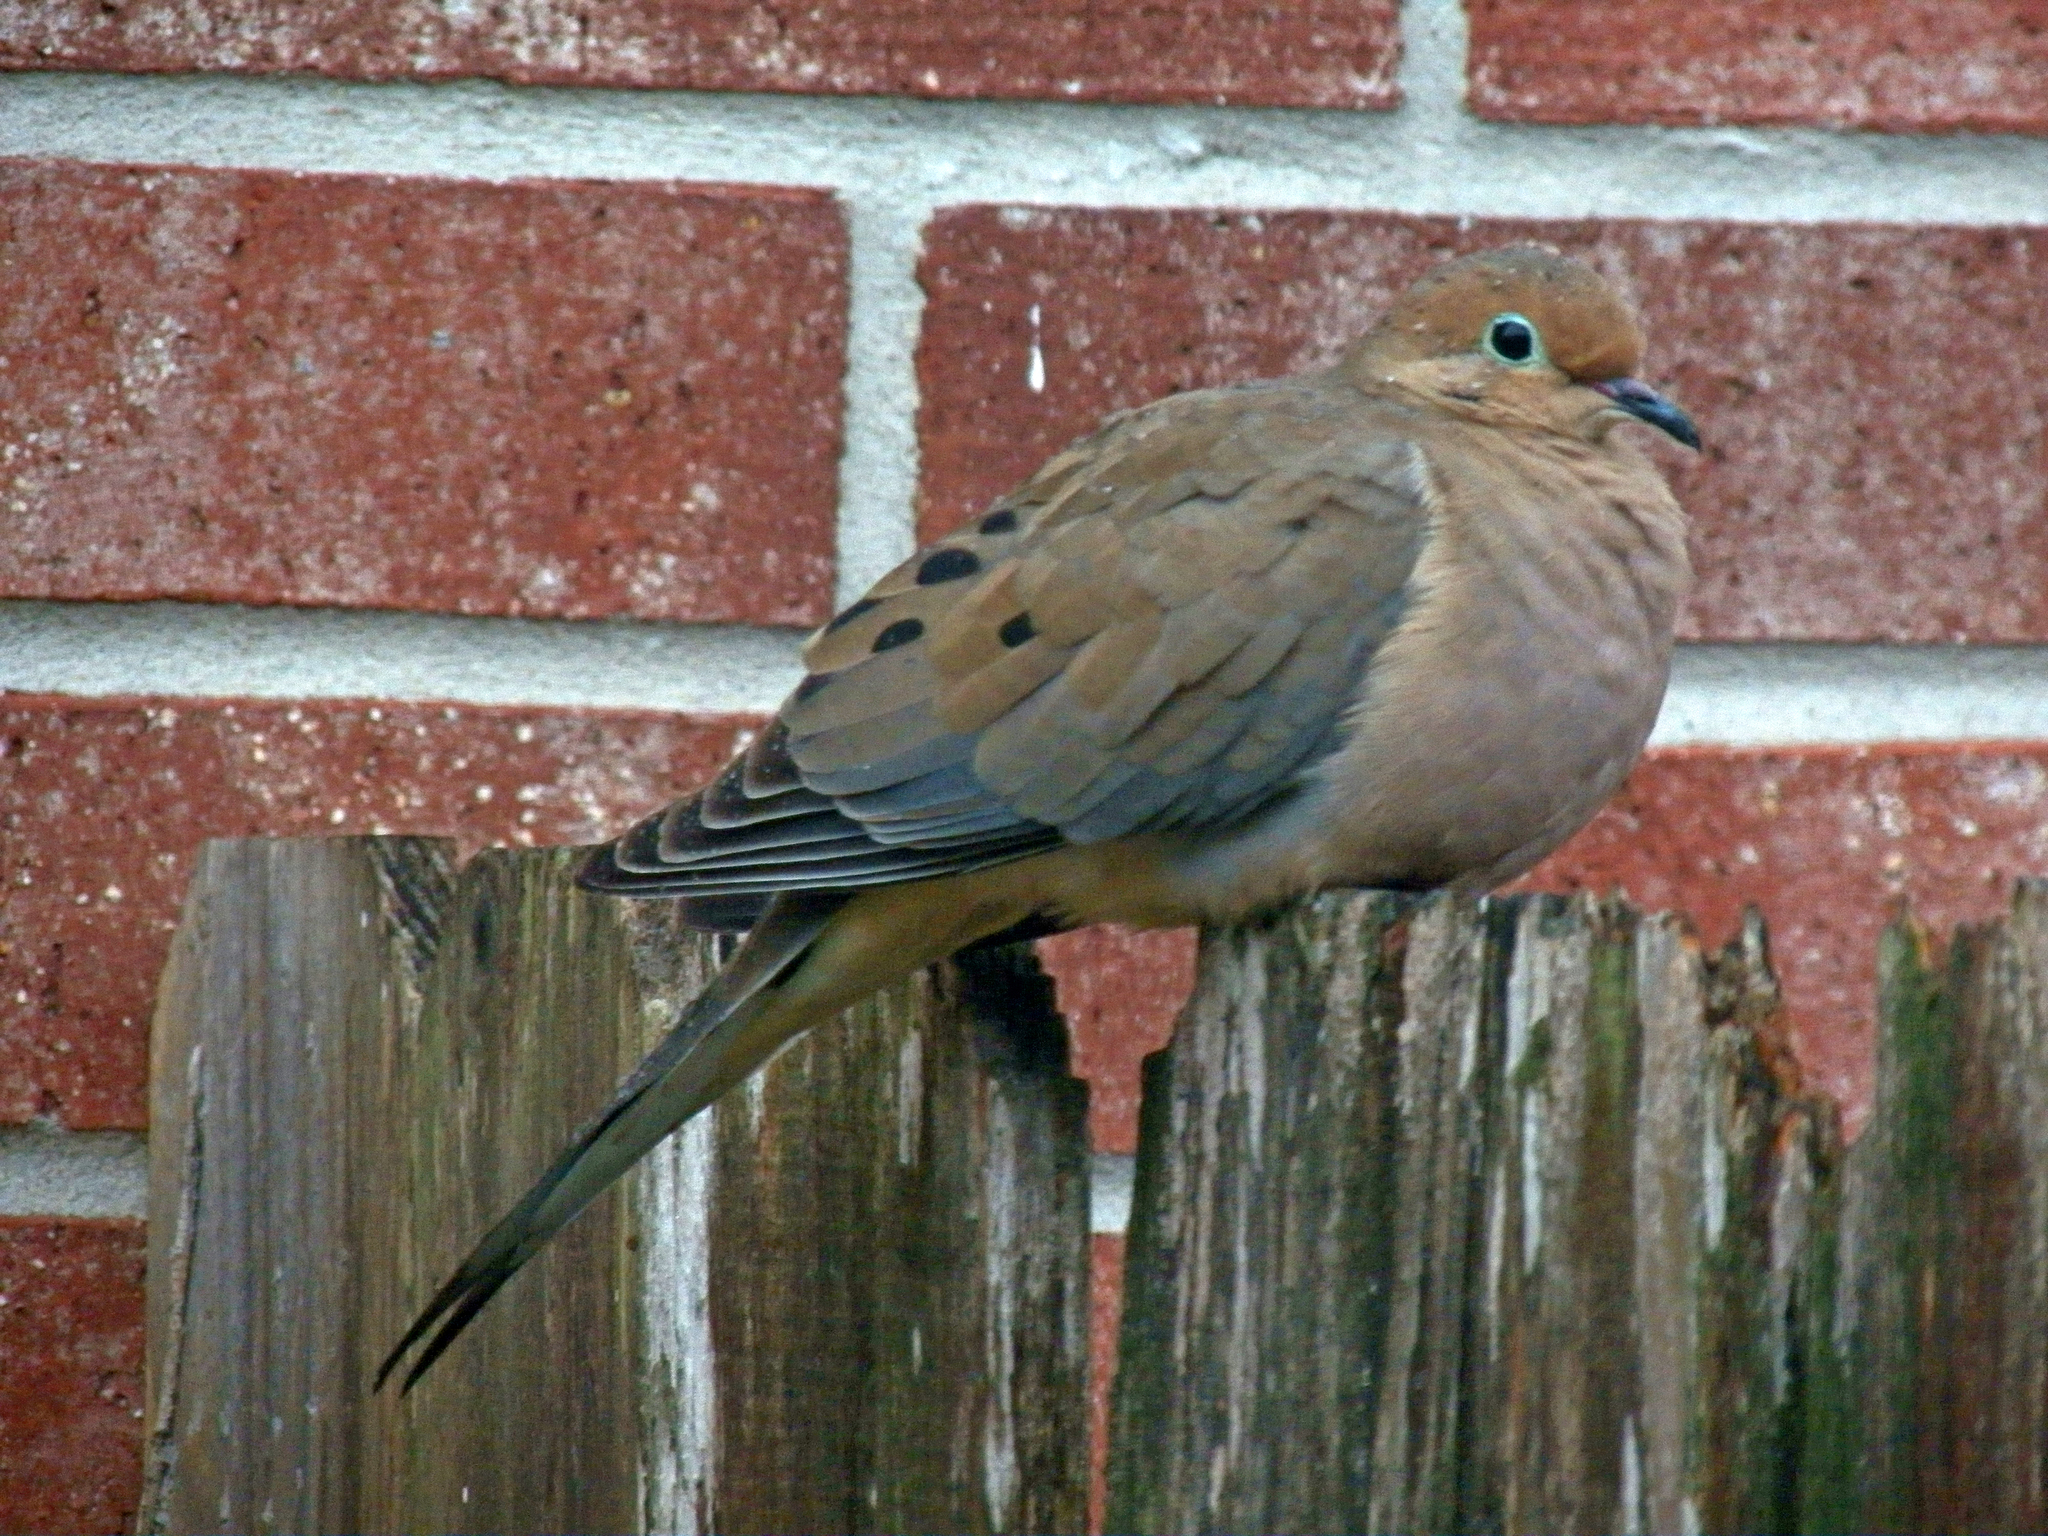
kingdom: Animalia
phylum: Chordata
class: Aves
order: Columbiformes
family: Columbidae
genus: Zenaida
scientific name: Zenaida macroura
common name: Mourning dove
